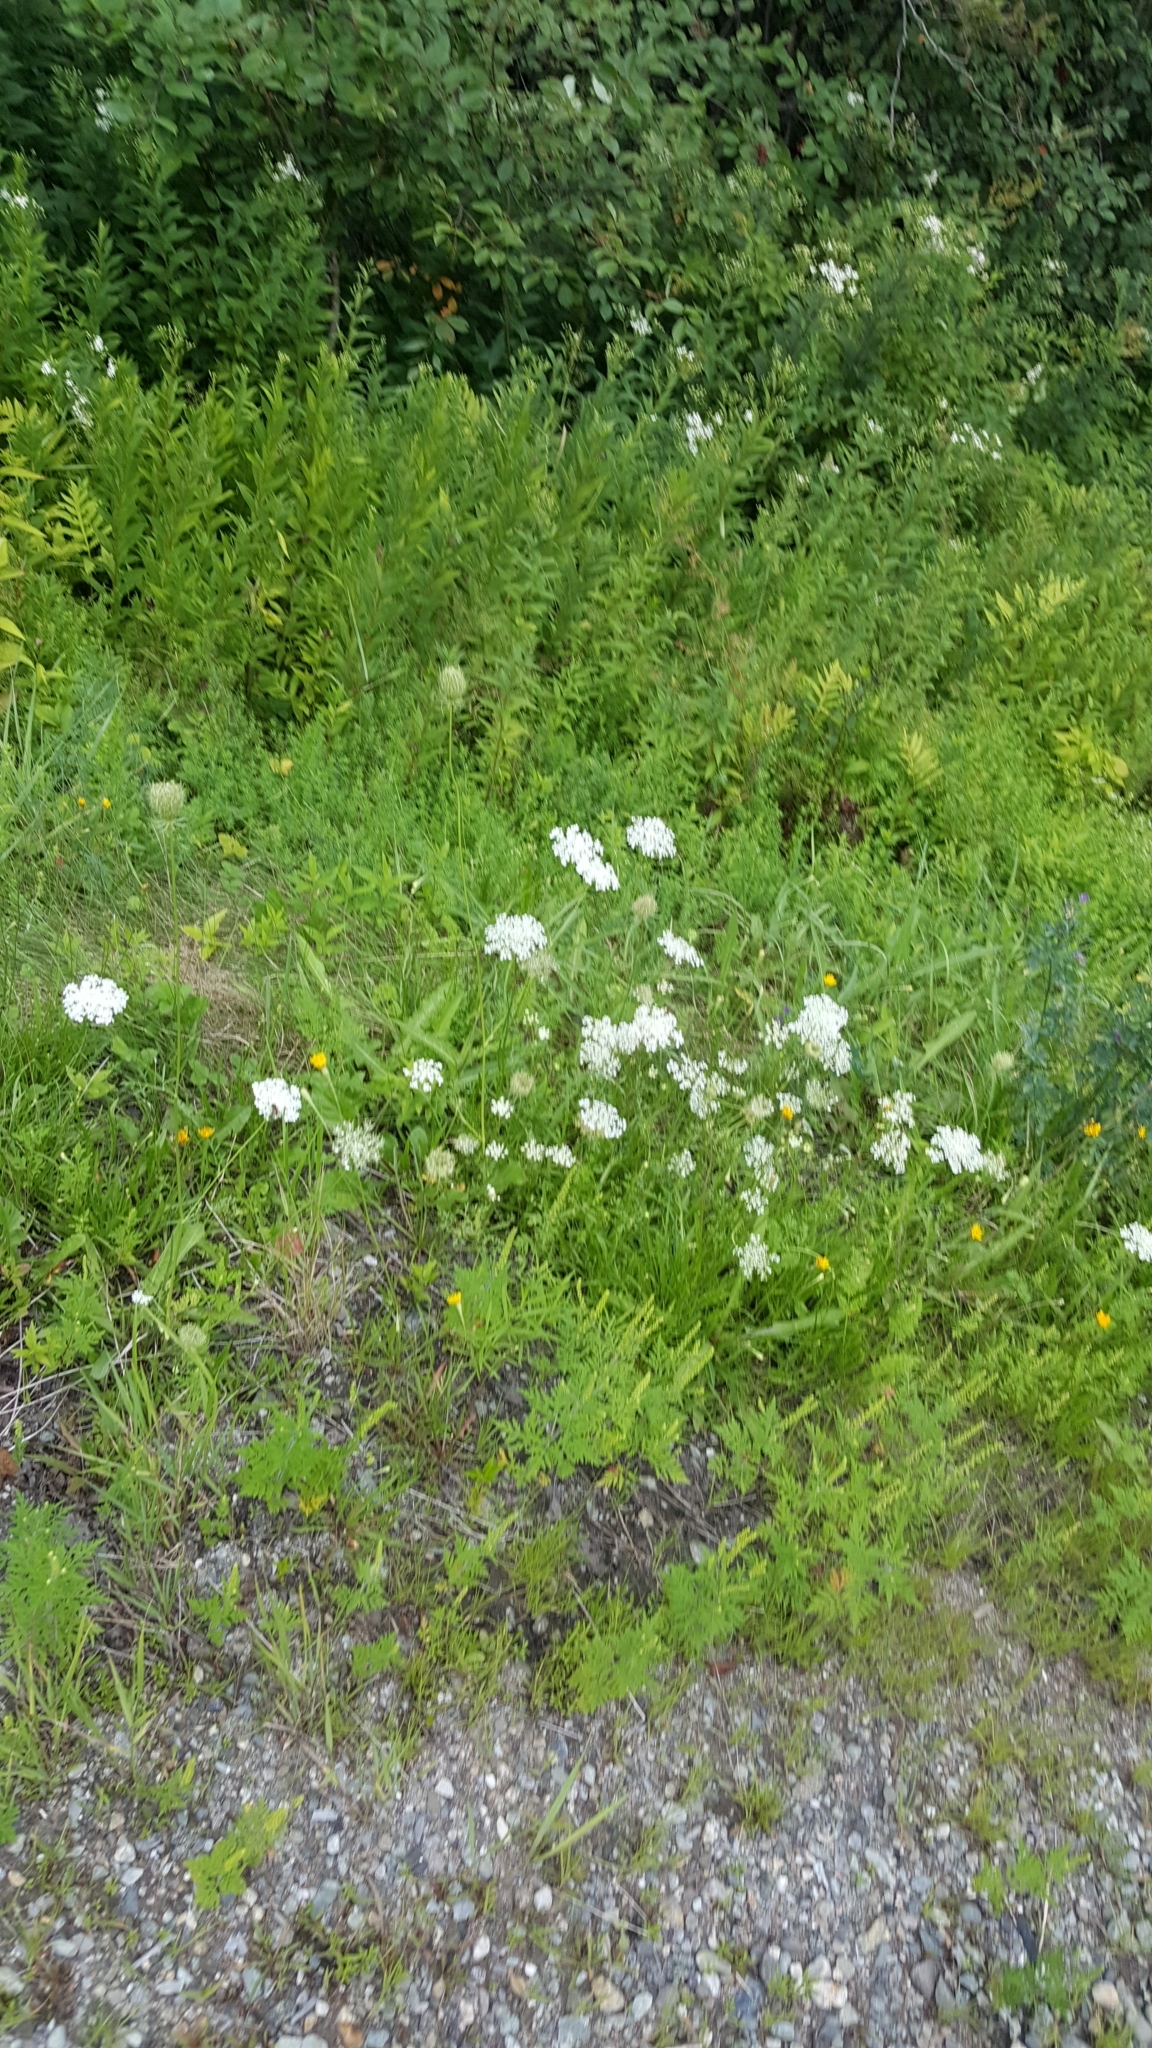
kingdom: Plantae
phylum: Tracheophyta
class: Magnoliopsida
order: Apiales
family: Apiaceae
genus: Daucus
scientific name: Daucus carota
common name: Wild carrot
